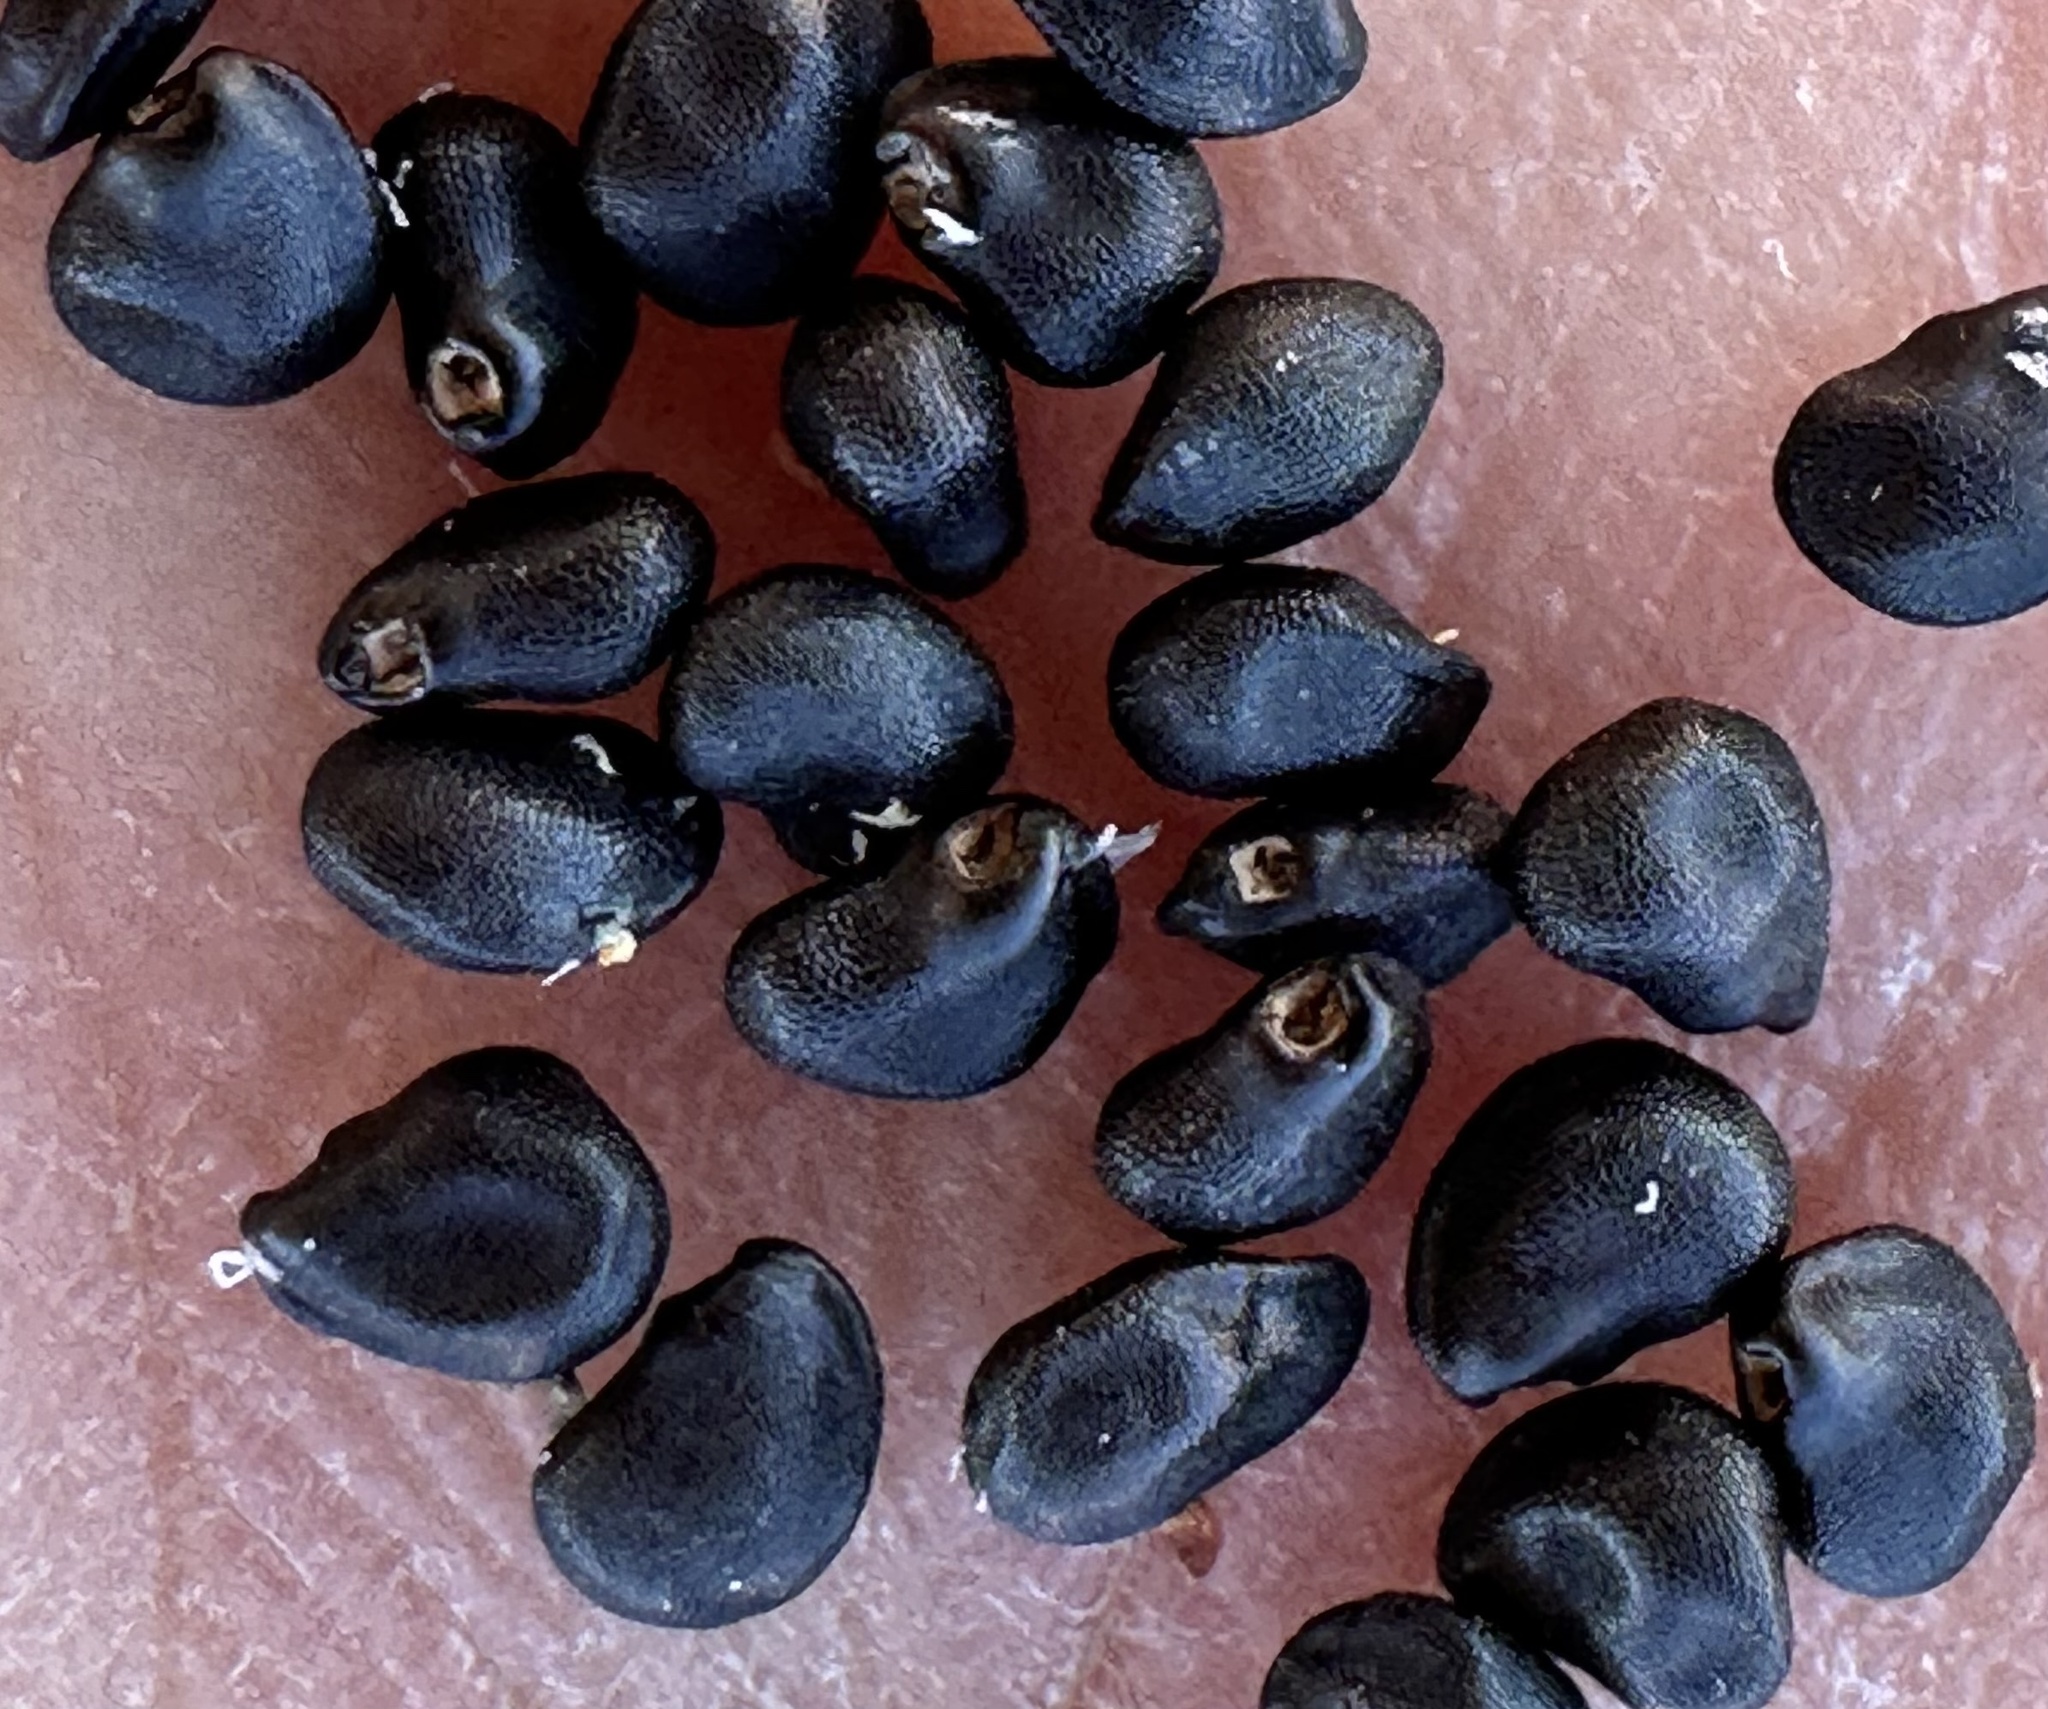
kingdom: Plantae
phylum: Tracheophyta
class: Magnoliopsida
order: Caryophyllales
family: Cactaceae
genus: Ferocactus
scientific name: Ferocactus cylindraceus
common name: California barrel cactus
